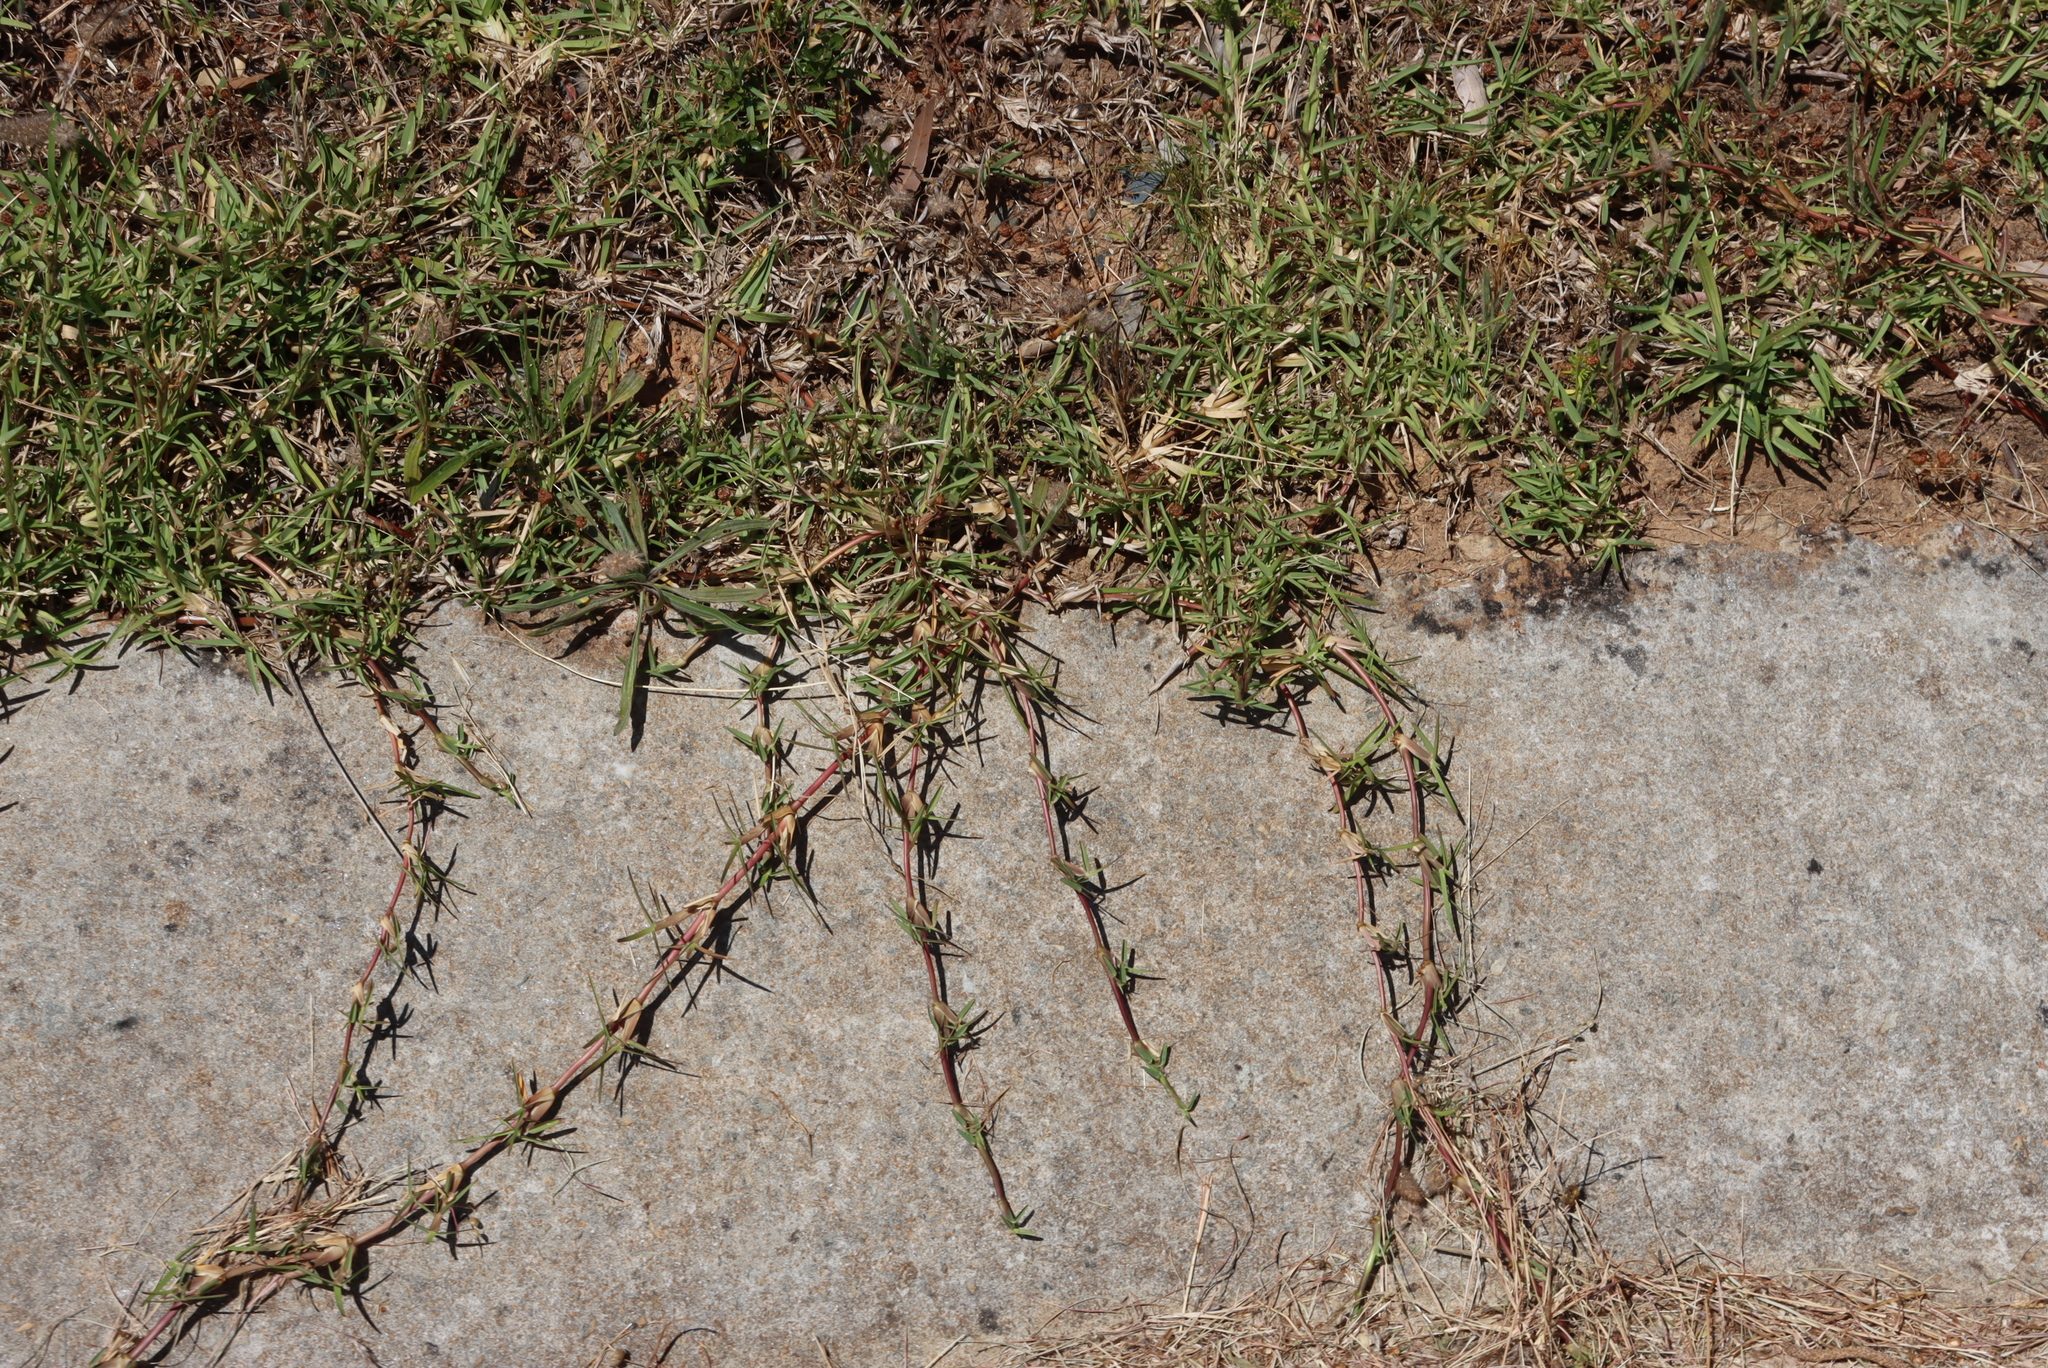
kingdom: Plantae
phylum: Tracheophyta
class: Liliopsida
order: Poales
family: Poaceae
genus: Stenotaphrum
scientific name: Stenotaphrum secundatum
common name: St. augustine grass
